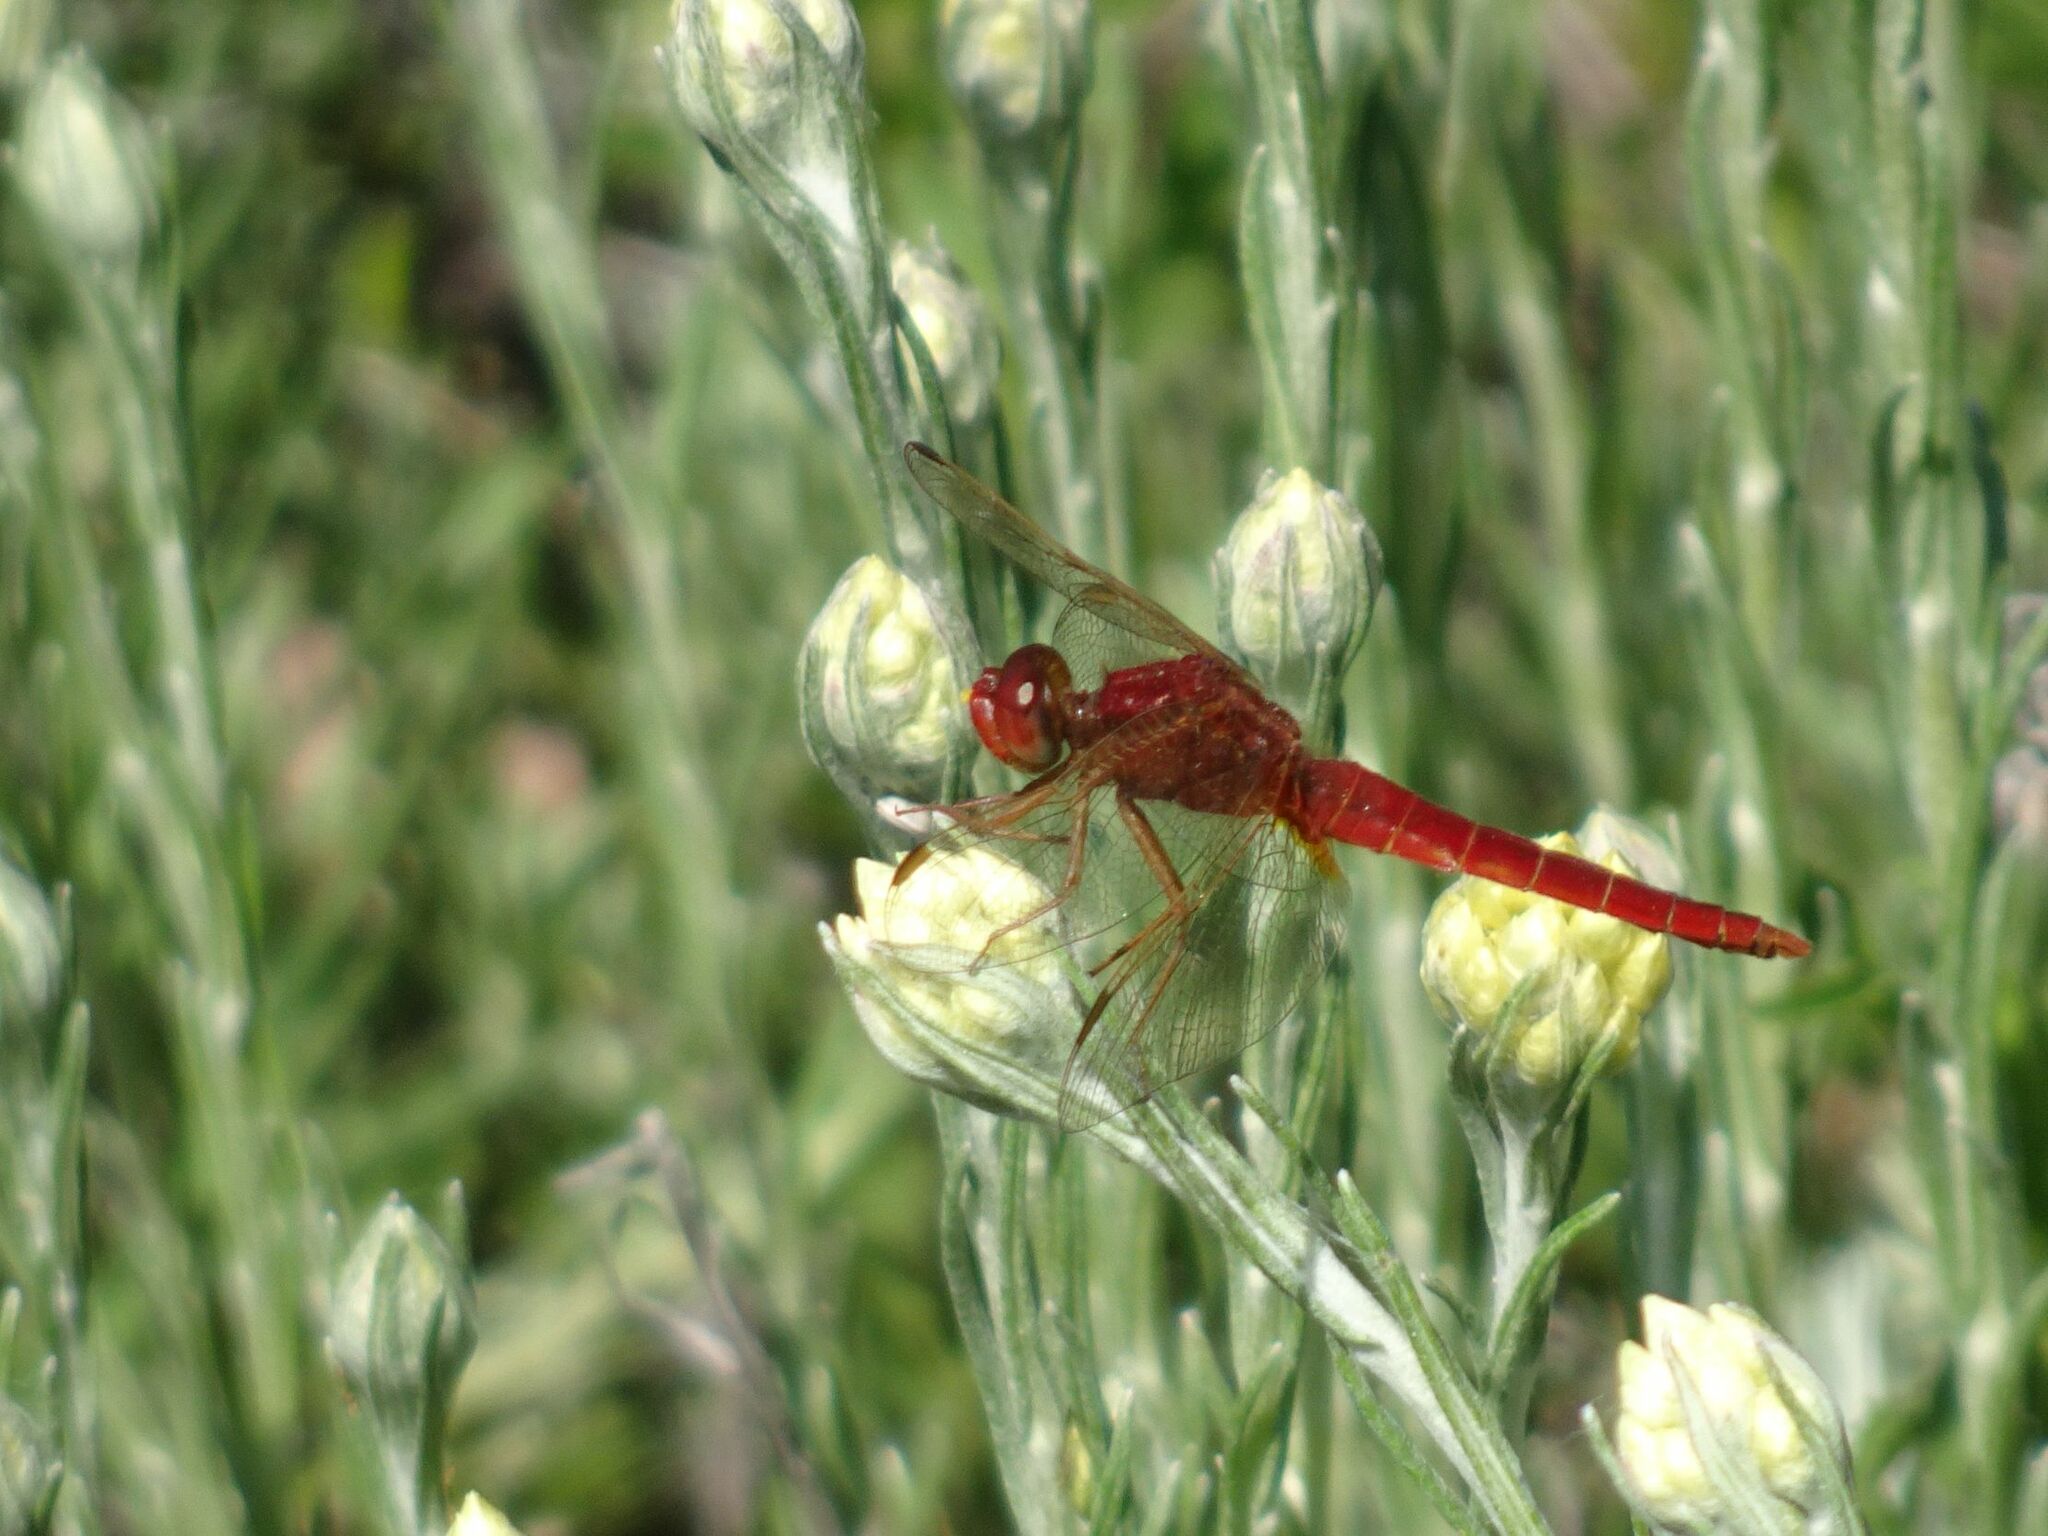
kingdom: Animalia
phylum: Arthropoda
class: Insecta
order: Odonata
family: Libellulidae
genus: Crocothemis
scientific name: Crocothemis erythraea
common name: Scarlet dragonfly
